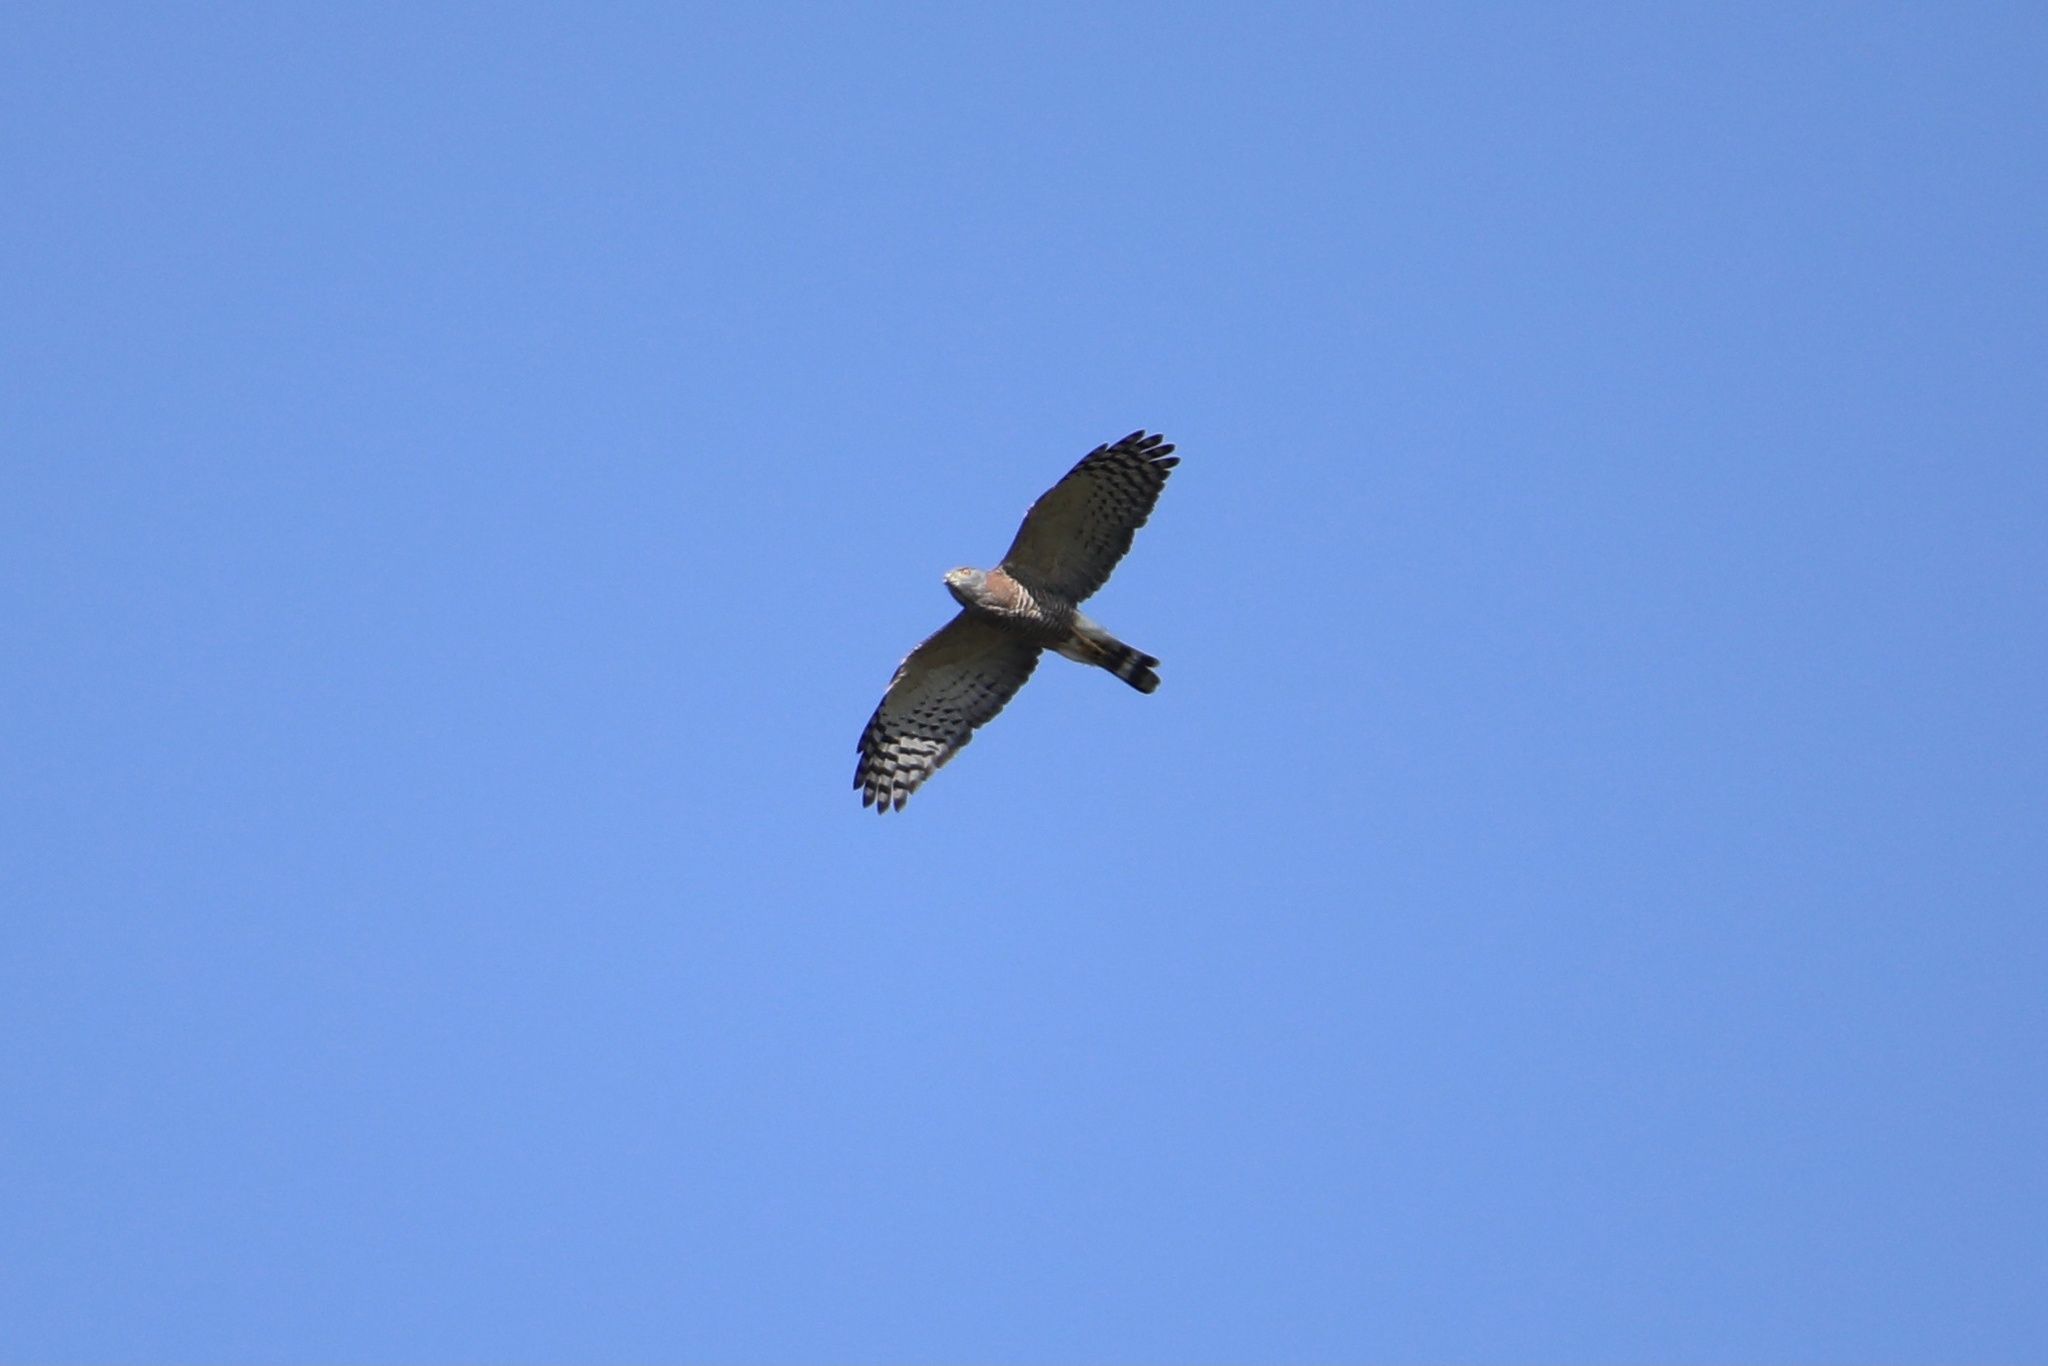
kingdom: Animalia
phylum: Chordata
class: Aves
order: Accipitriformes
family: Accipitridae
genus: Harpagus
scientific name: Harpagus bidentatus
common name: Double-toothed kite
